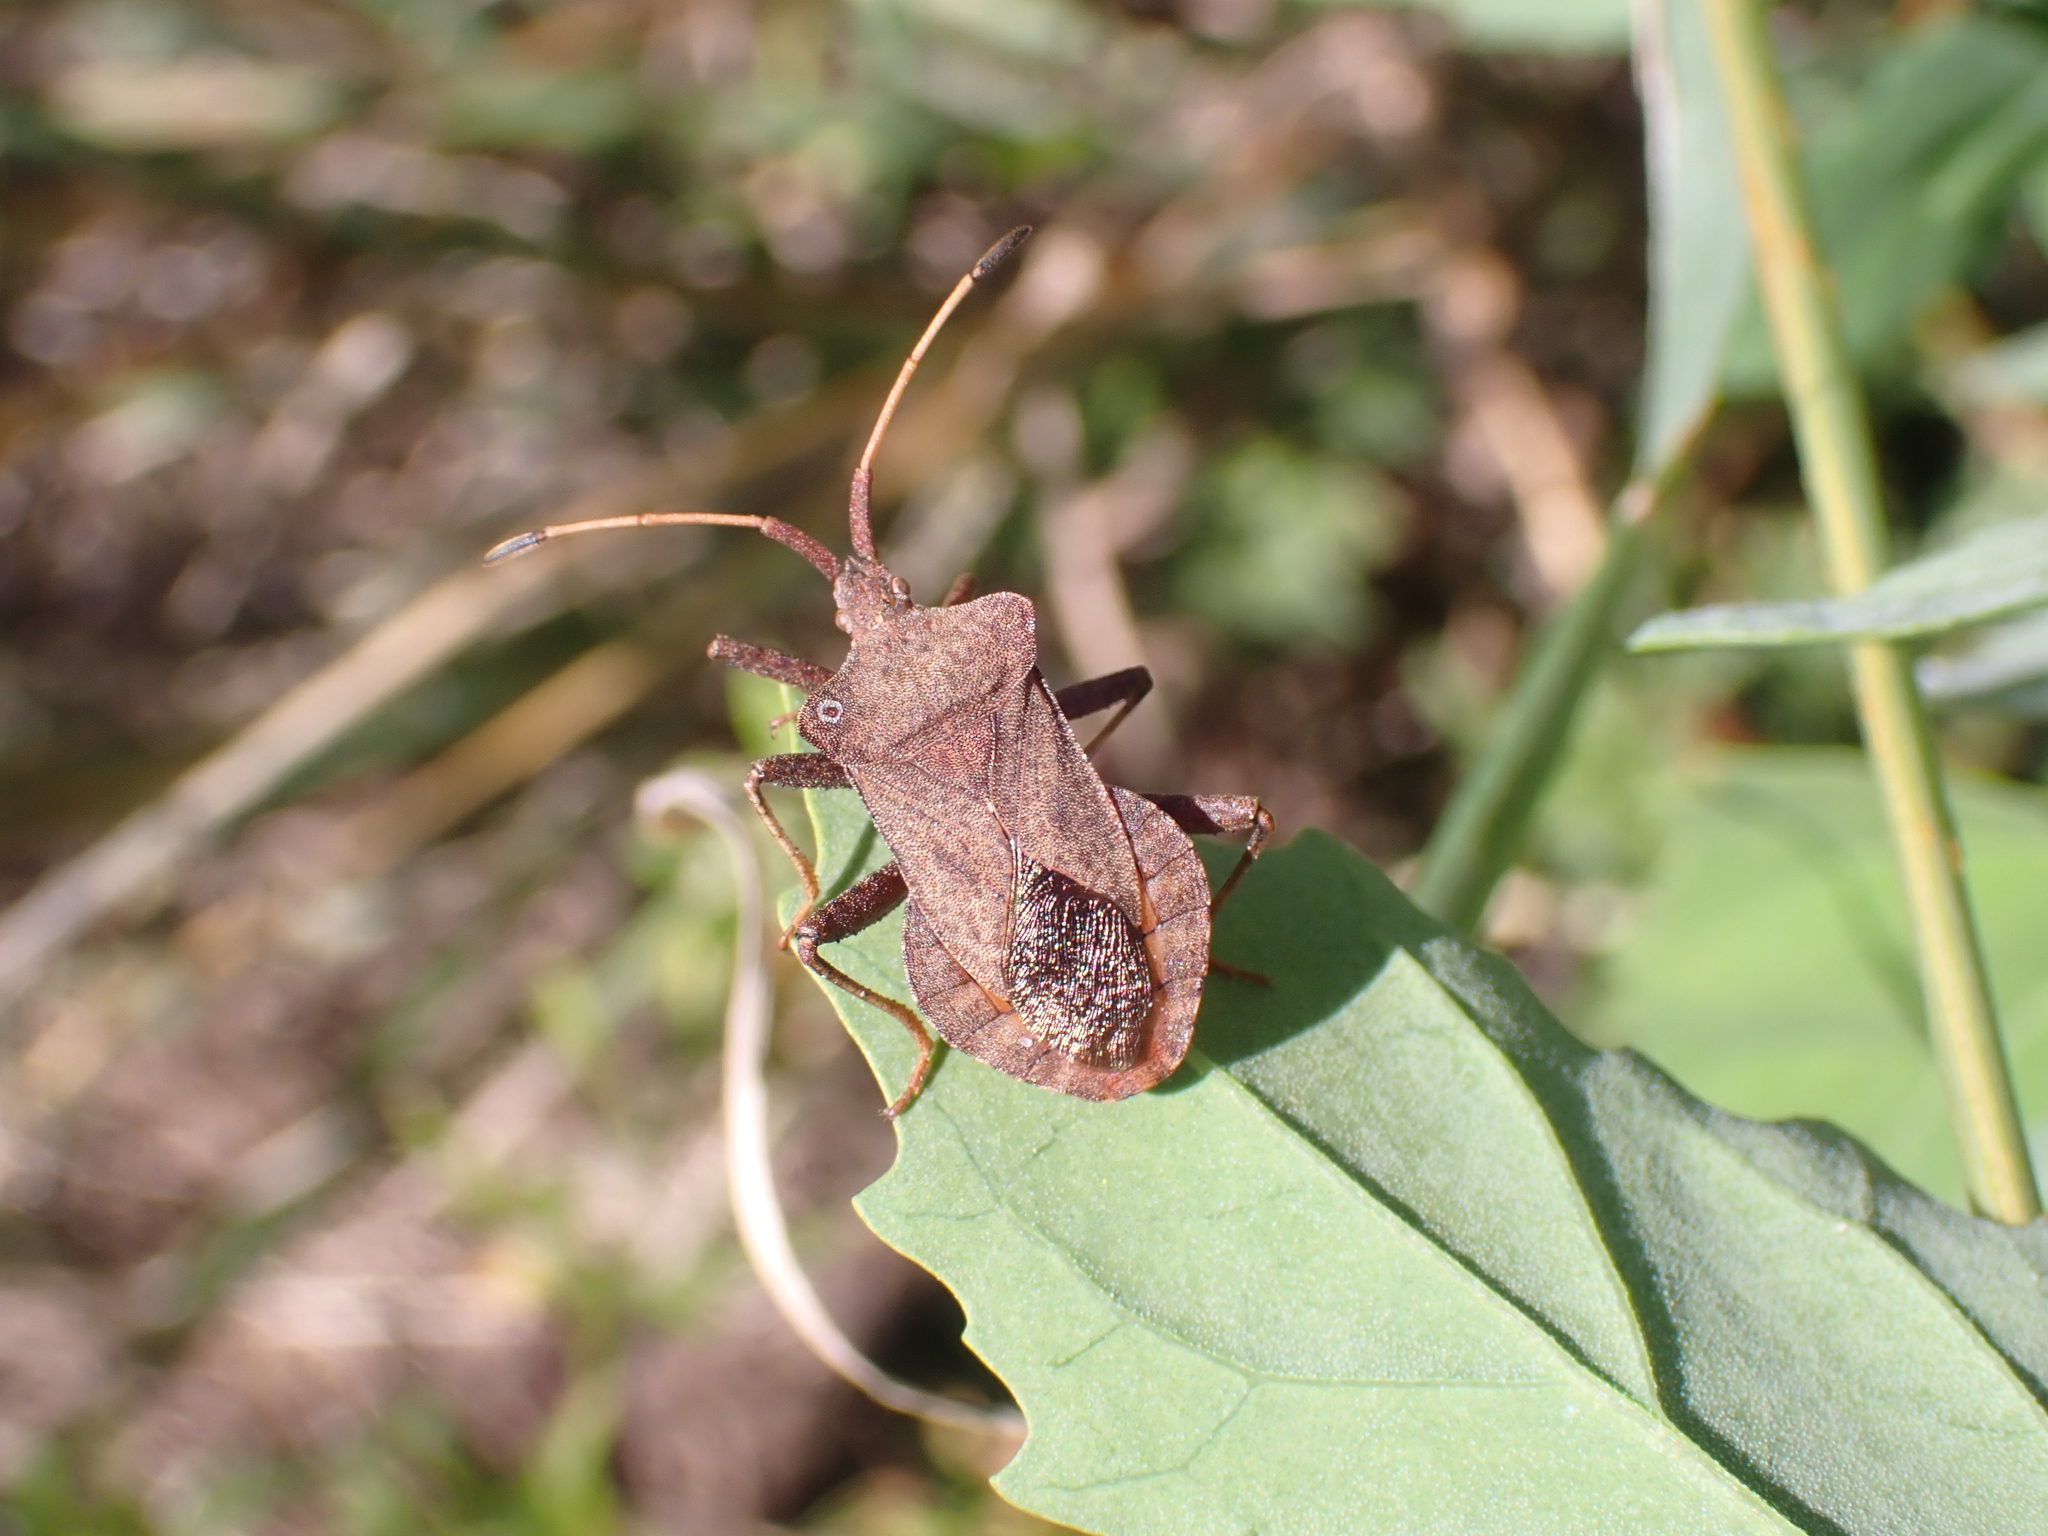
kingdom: Animalia
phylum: Arthropoda
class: Insecta
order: Hemiptera
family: Coreidae
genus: Coreus
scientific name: Coreus marginatus
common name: Dock bug
